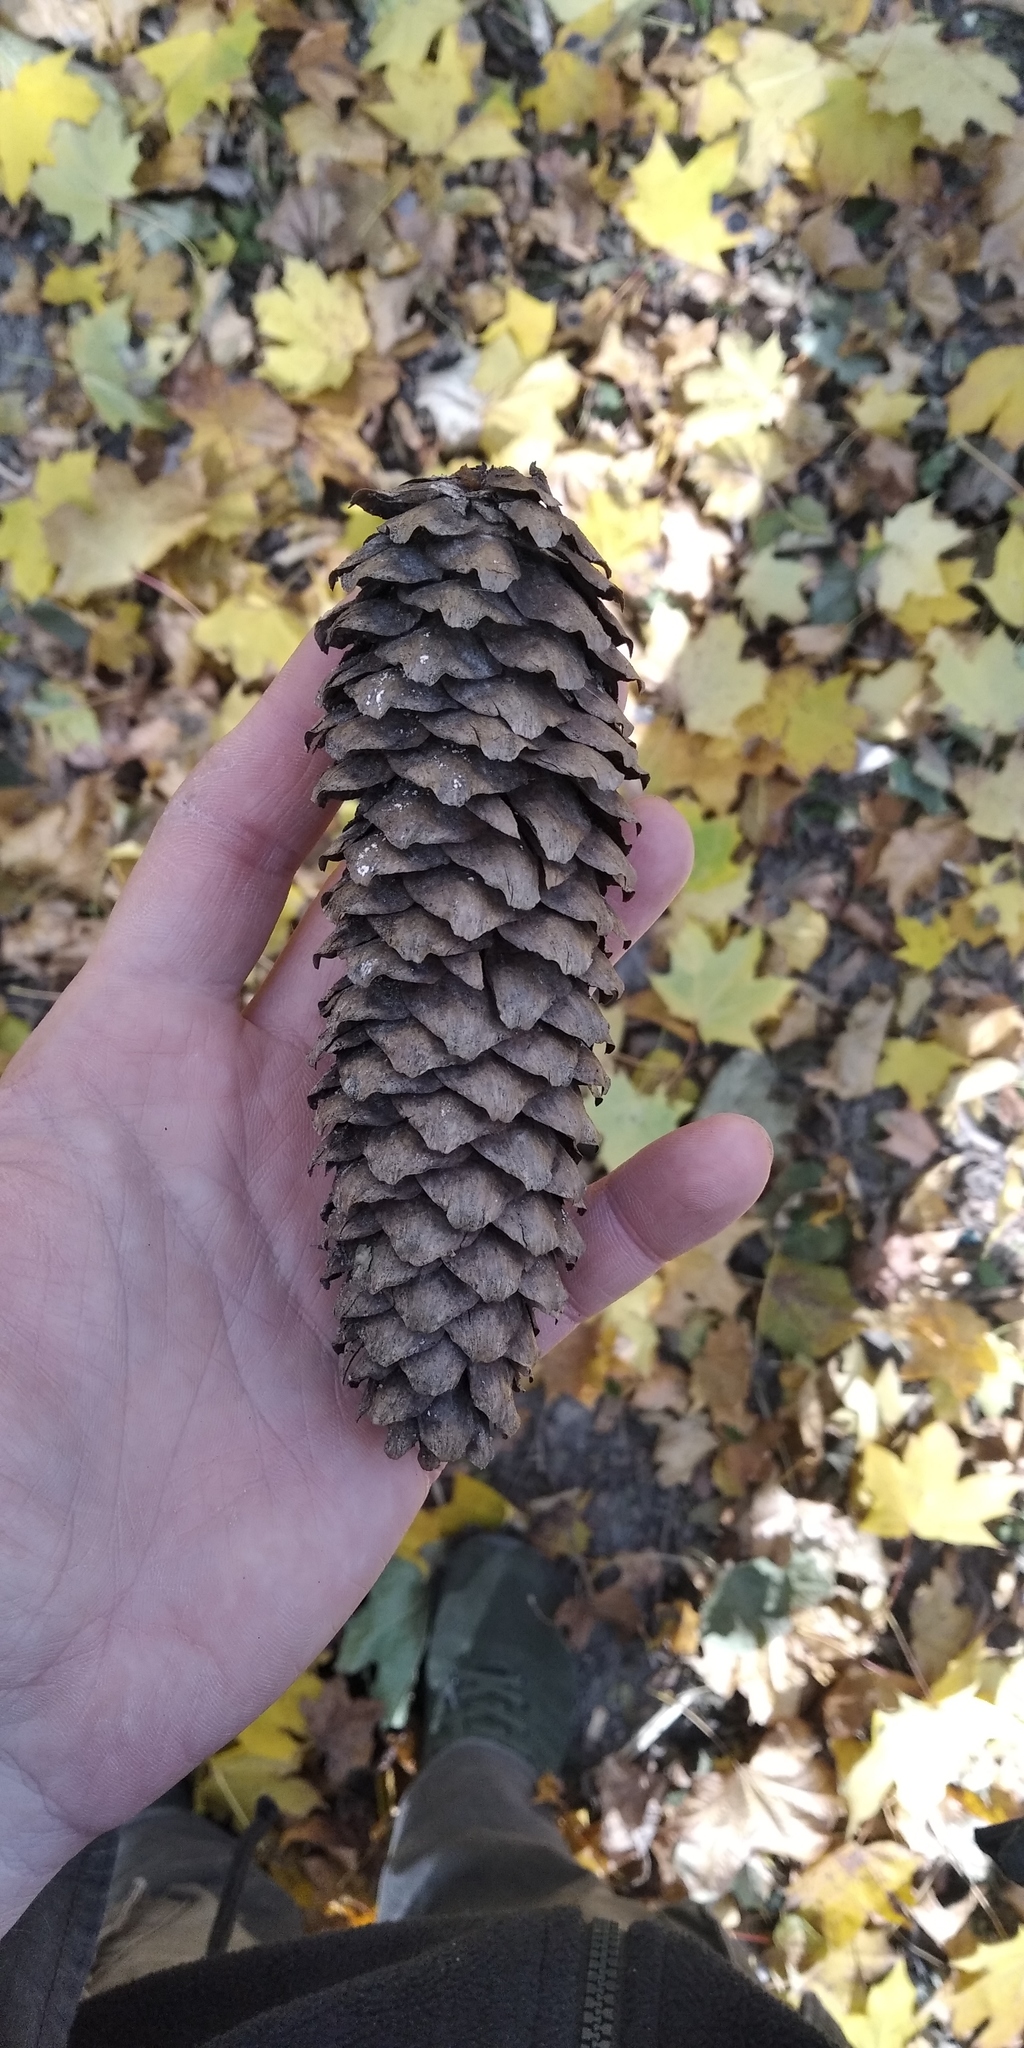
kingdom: Plantae
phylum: Tracheophyta
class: Pinopsida
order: Pinales
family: Pinaceae
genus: Picea
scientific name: Picea abies
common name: Norway spruce
